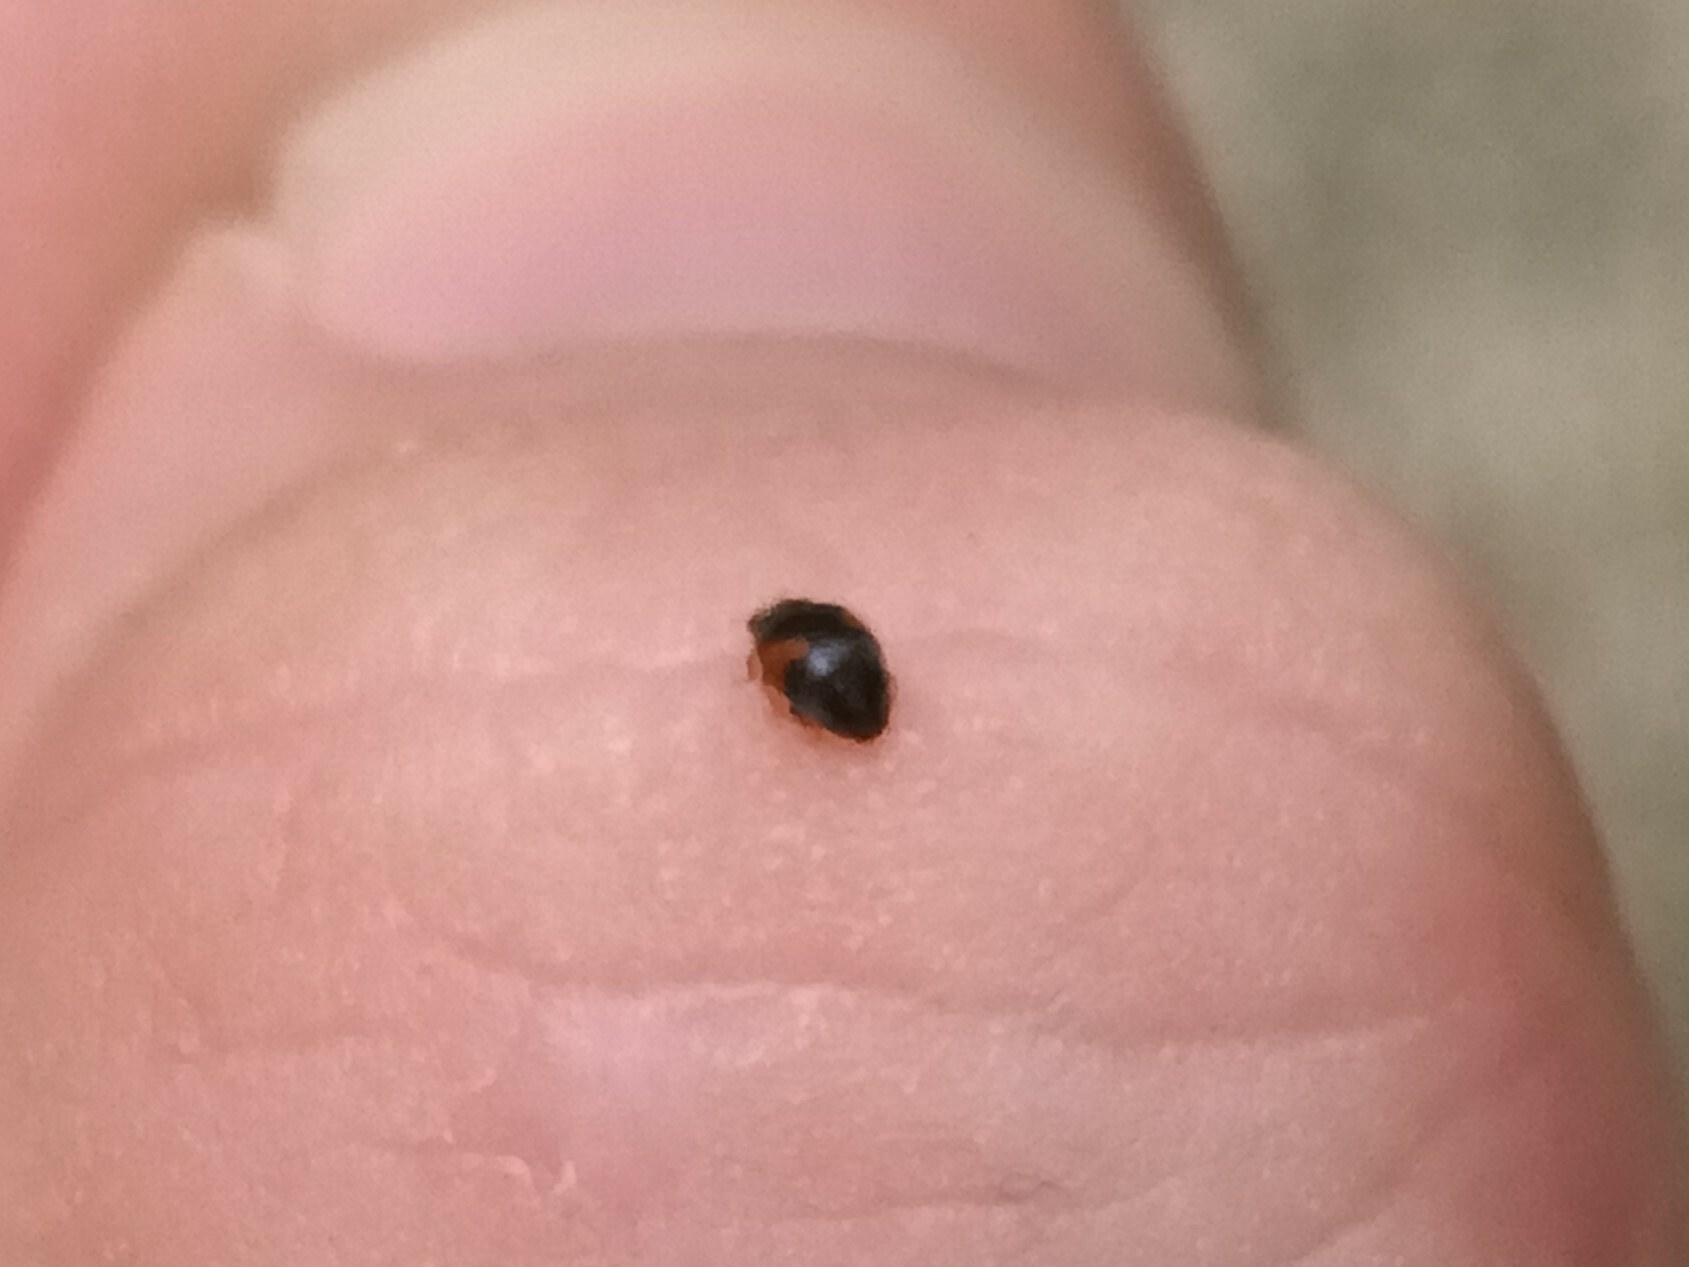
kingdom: Animalia
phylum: Arthropoda
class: Insecta
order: Coleoptera
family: Coccinellidae
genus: Scymnus
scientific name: Scymnus interruptus
